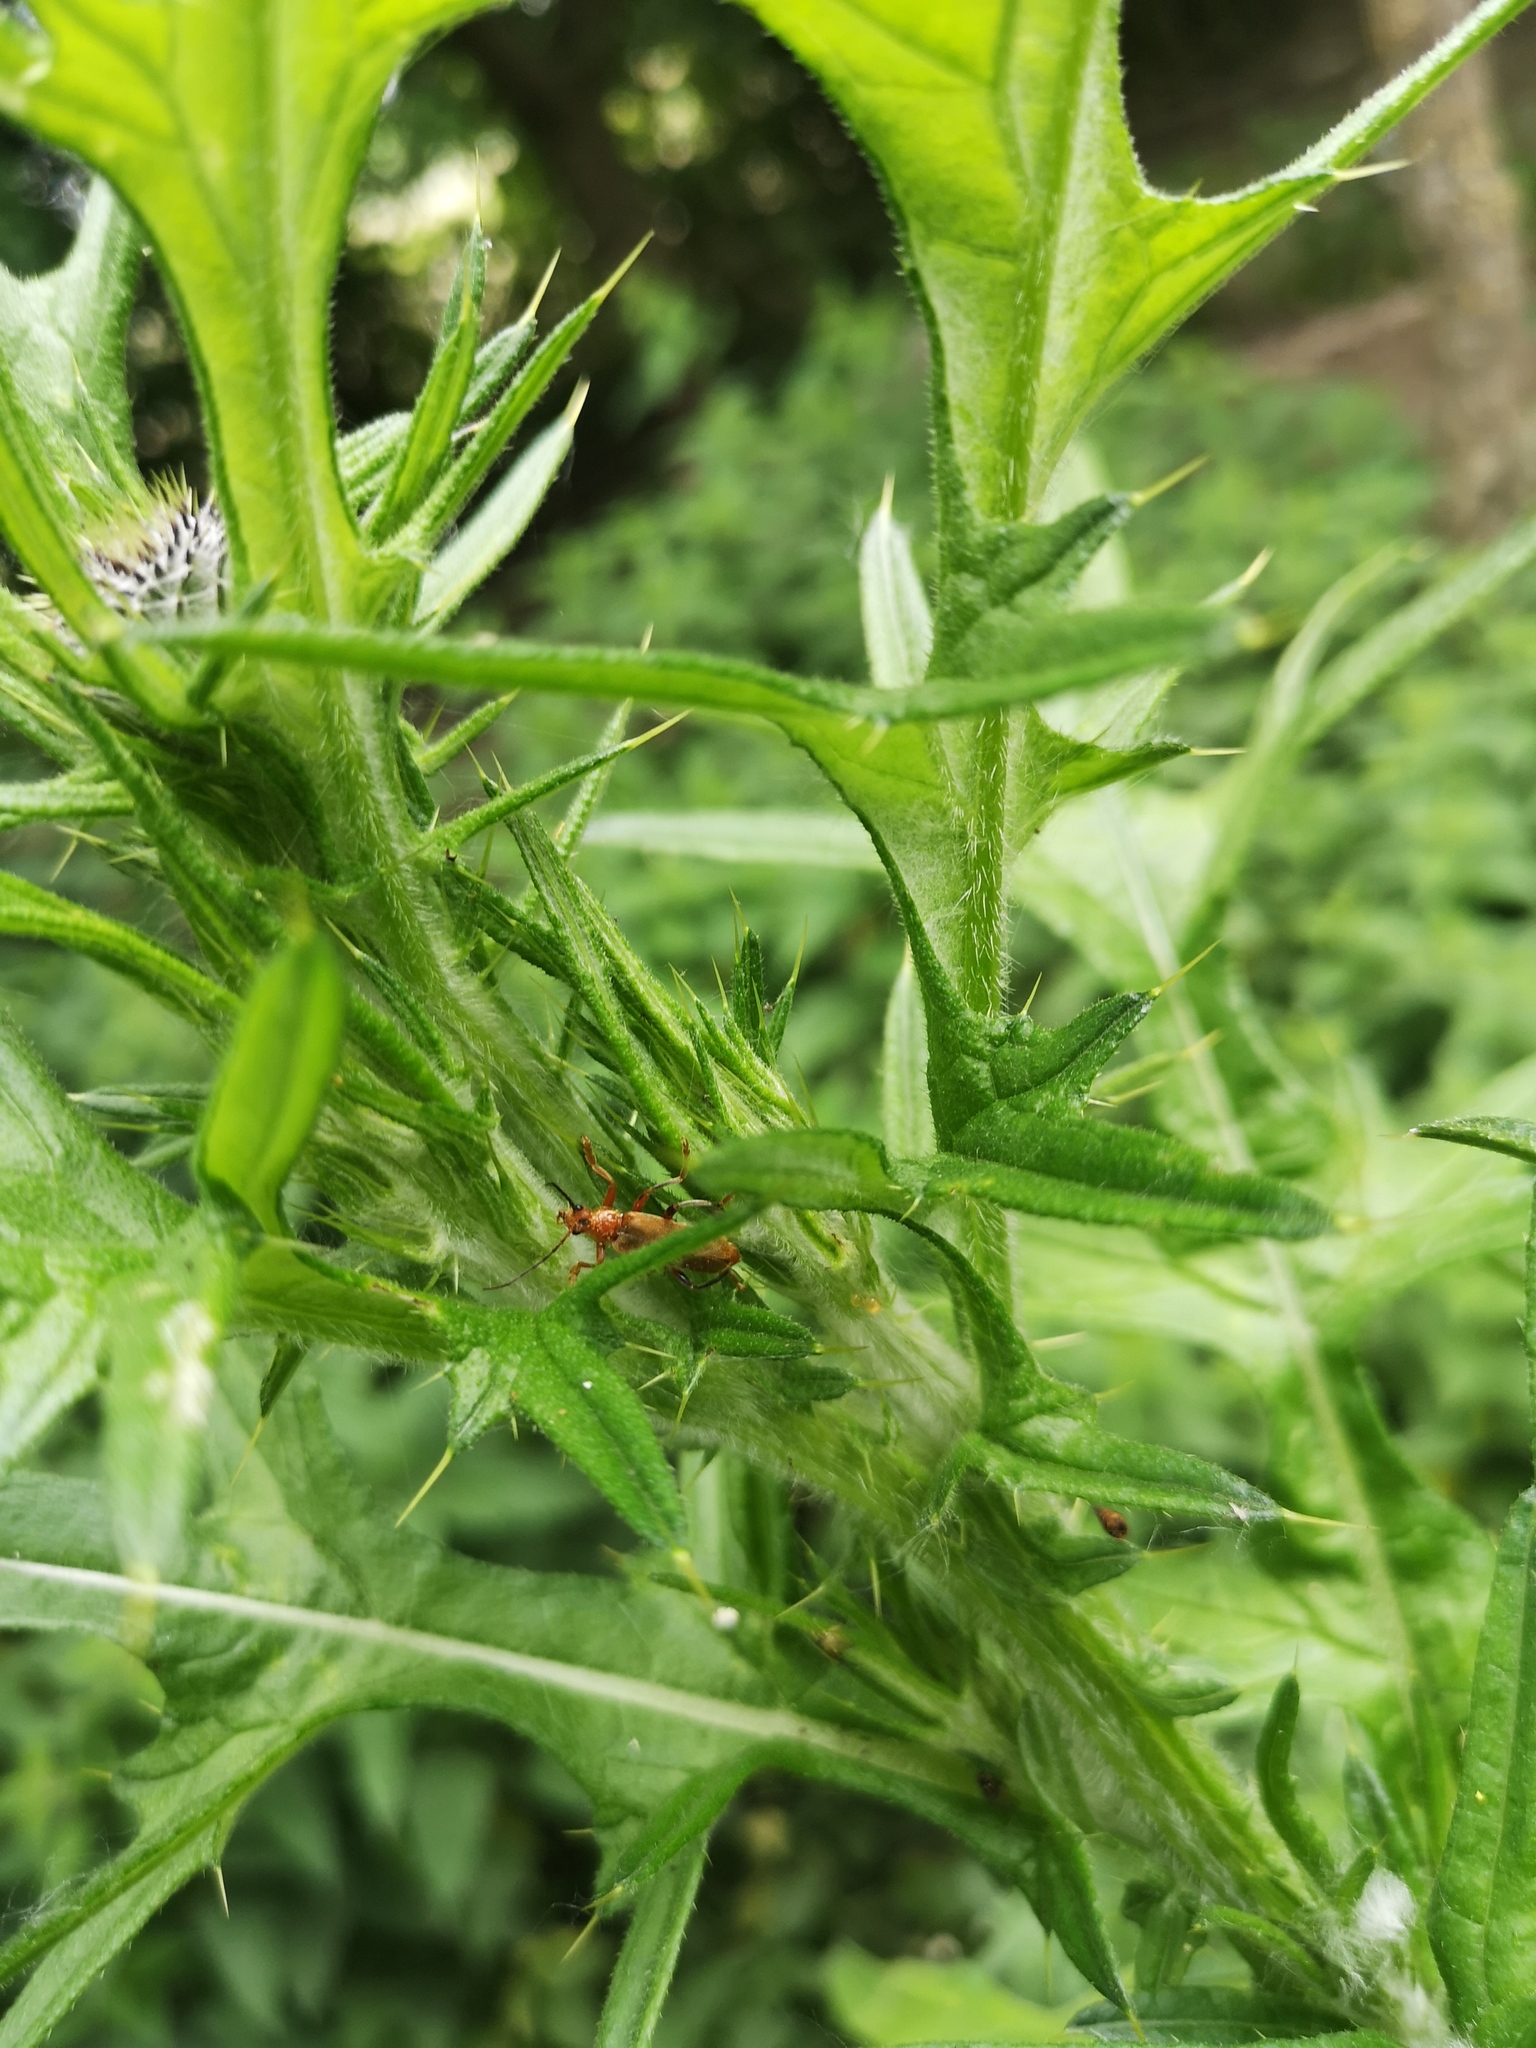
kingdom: Animalia
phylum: Arthropoda
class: Insecta
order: Coleoptera
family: Cantharidae
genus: Cantharis
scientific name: Cantharis livida
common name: Livid soldier beetle
